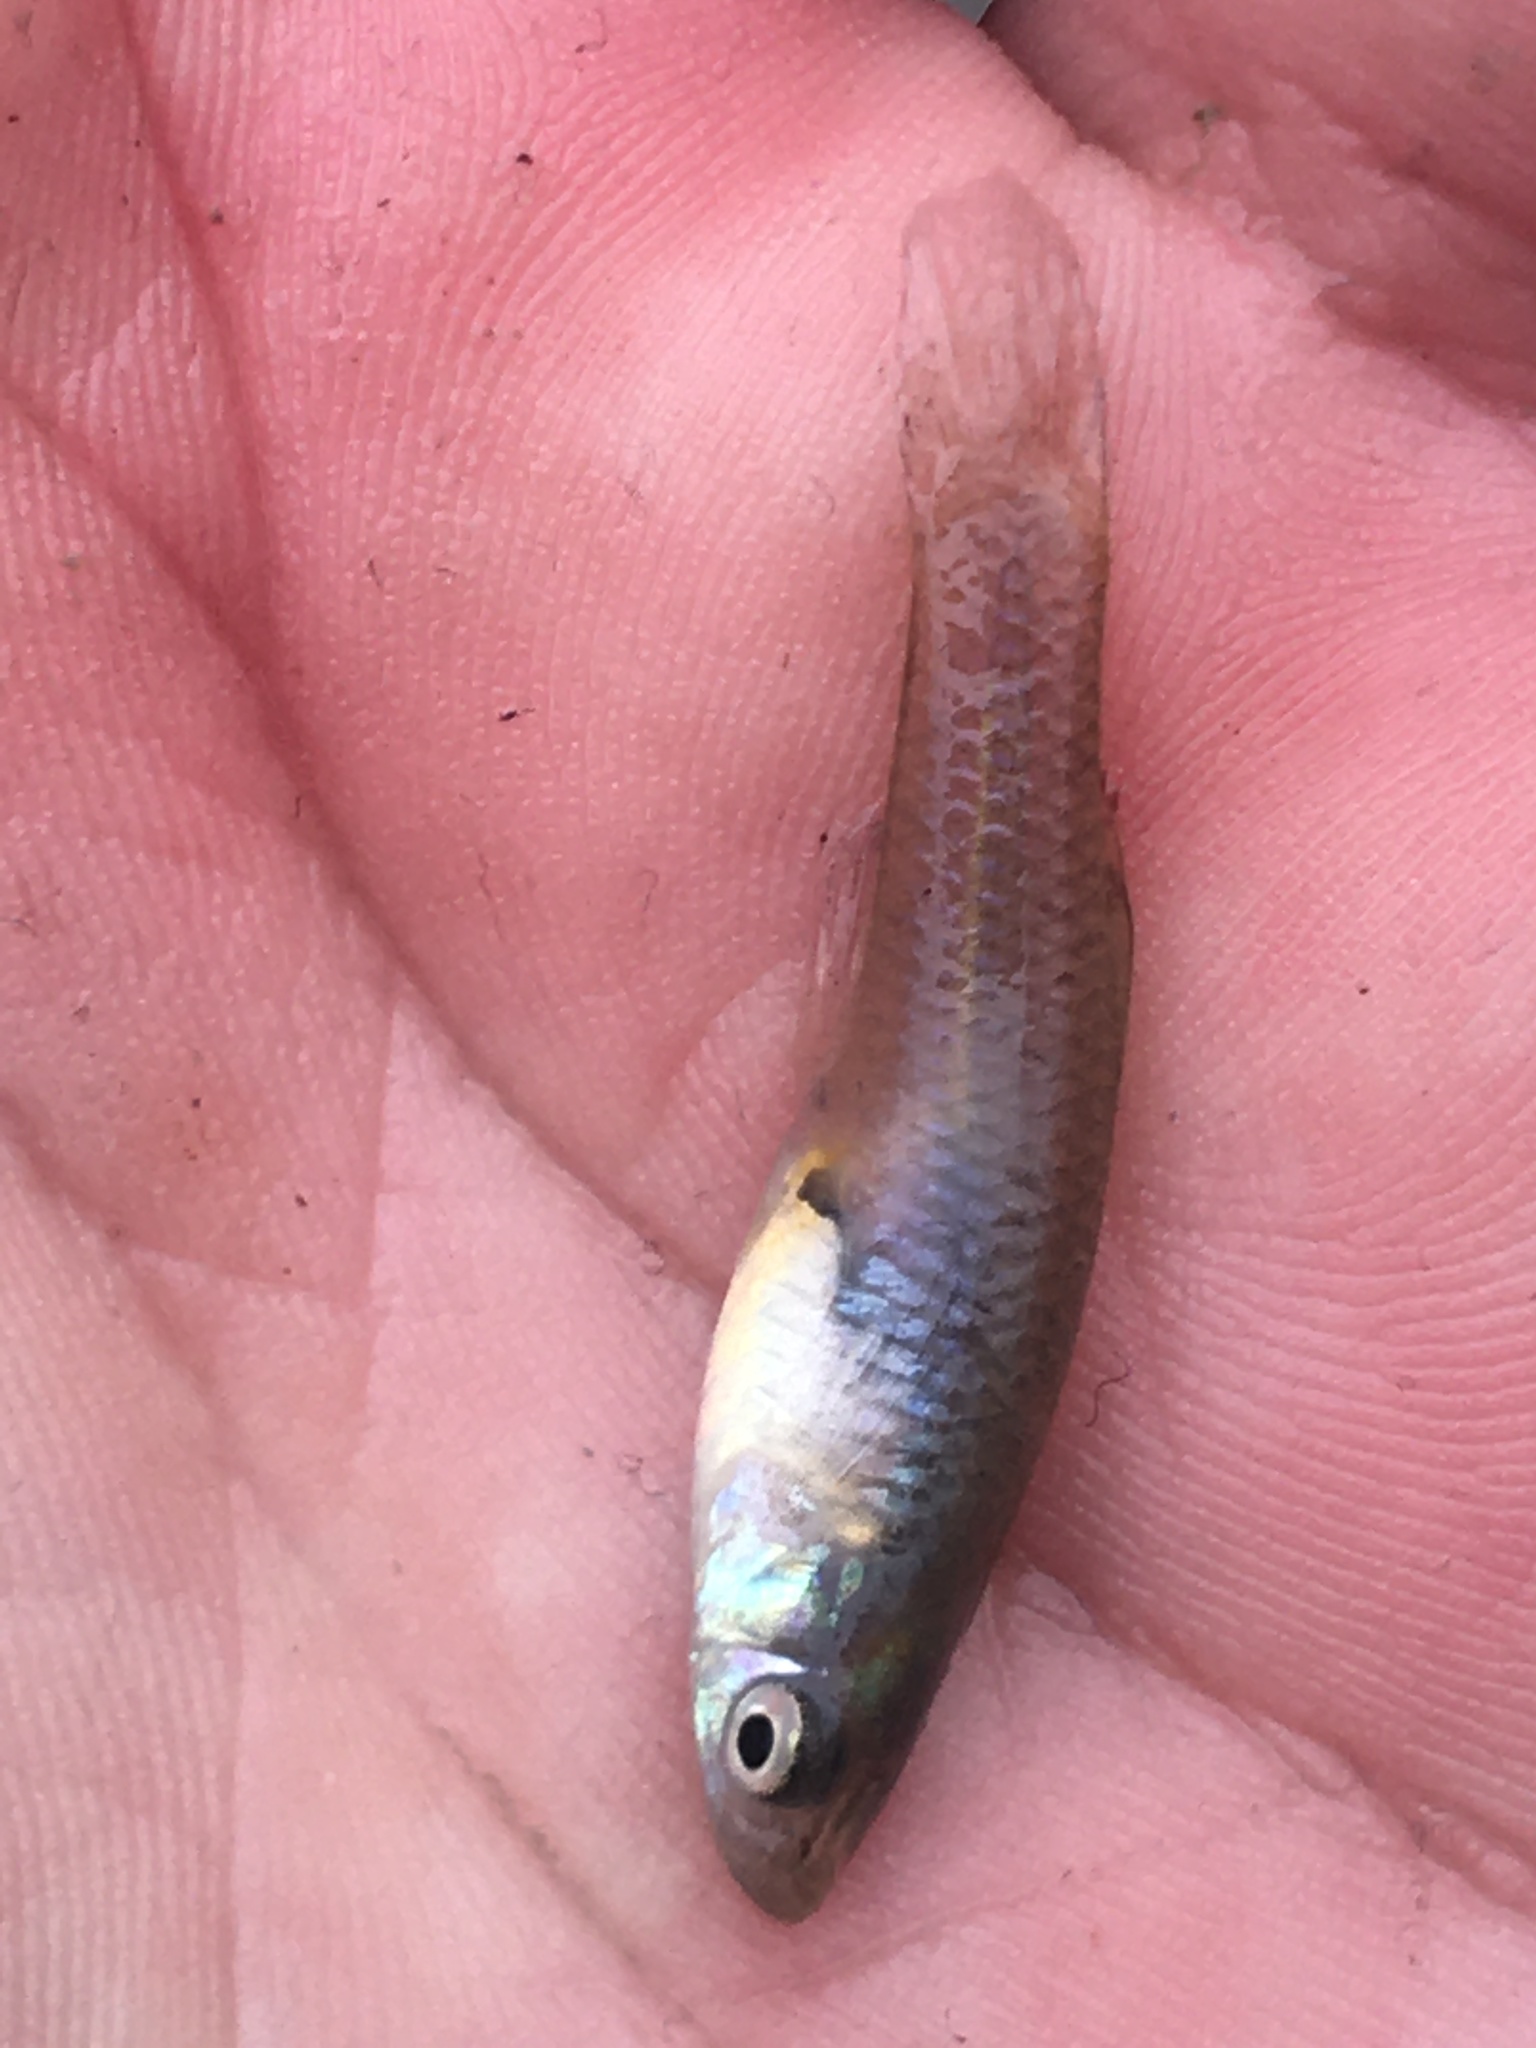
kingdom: Animalia
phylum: Chordata
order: Cyprinodontiformes
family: Poeciliidae
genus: Gambusia
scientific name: Gambusia affinis
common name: Mosquitofish
